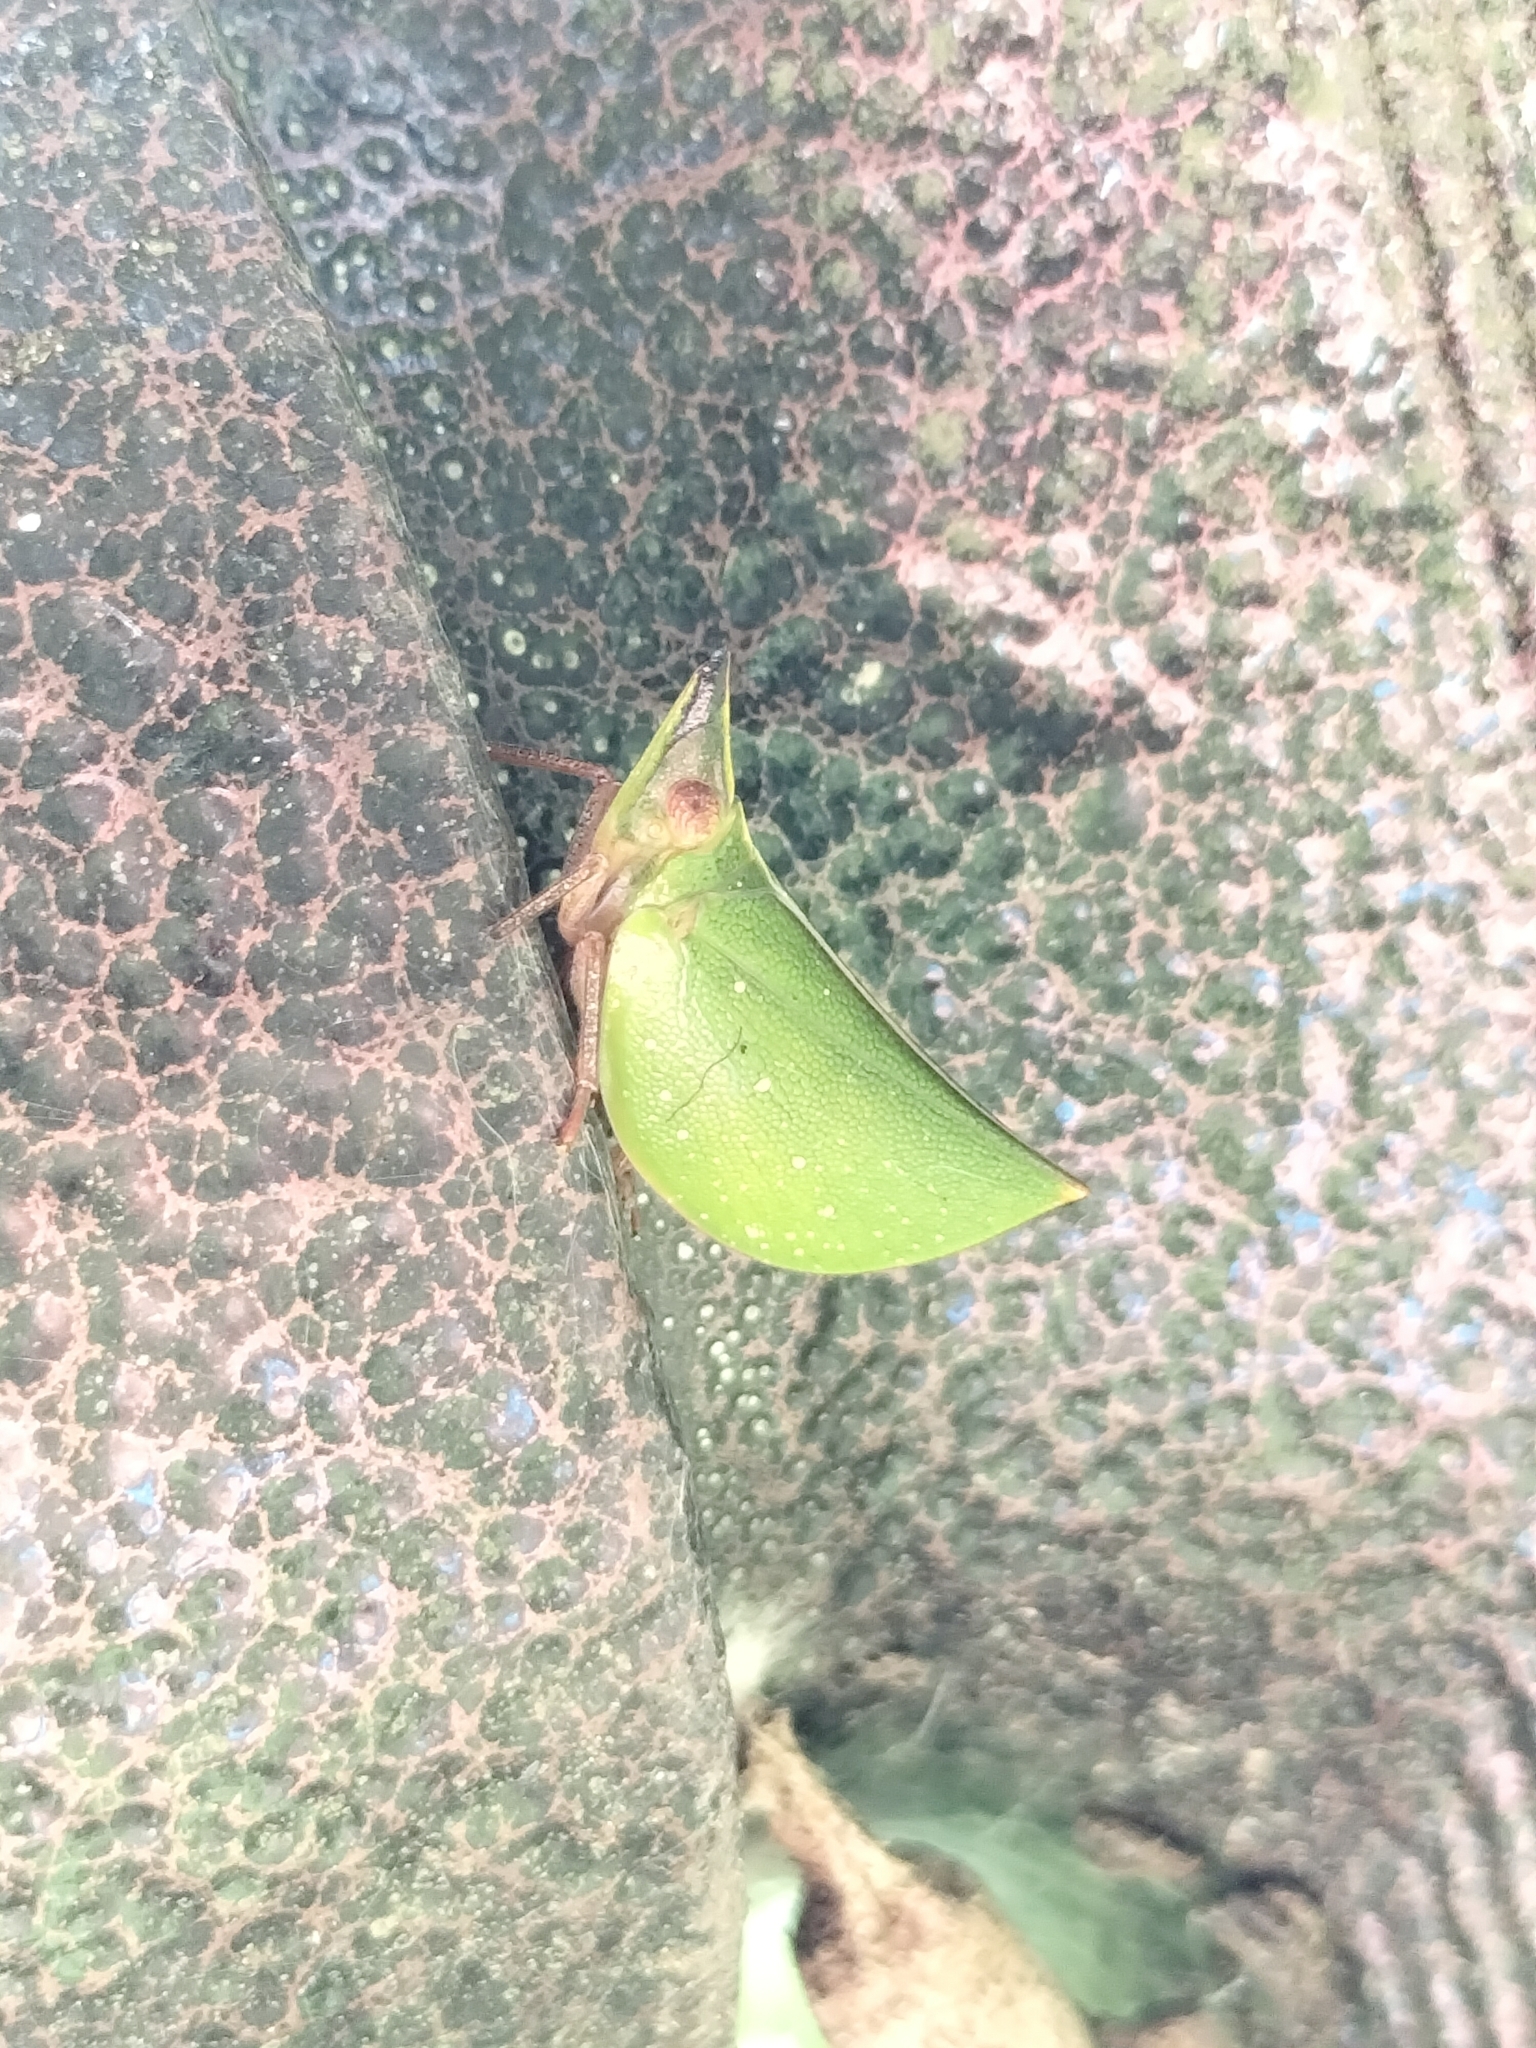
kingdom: Animalia
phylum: Arthropoda
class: Insecta
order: Hemiptera
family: Nogodinidae
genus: Tonga
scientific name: Tonga westwoodi
